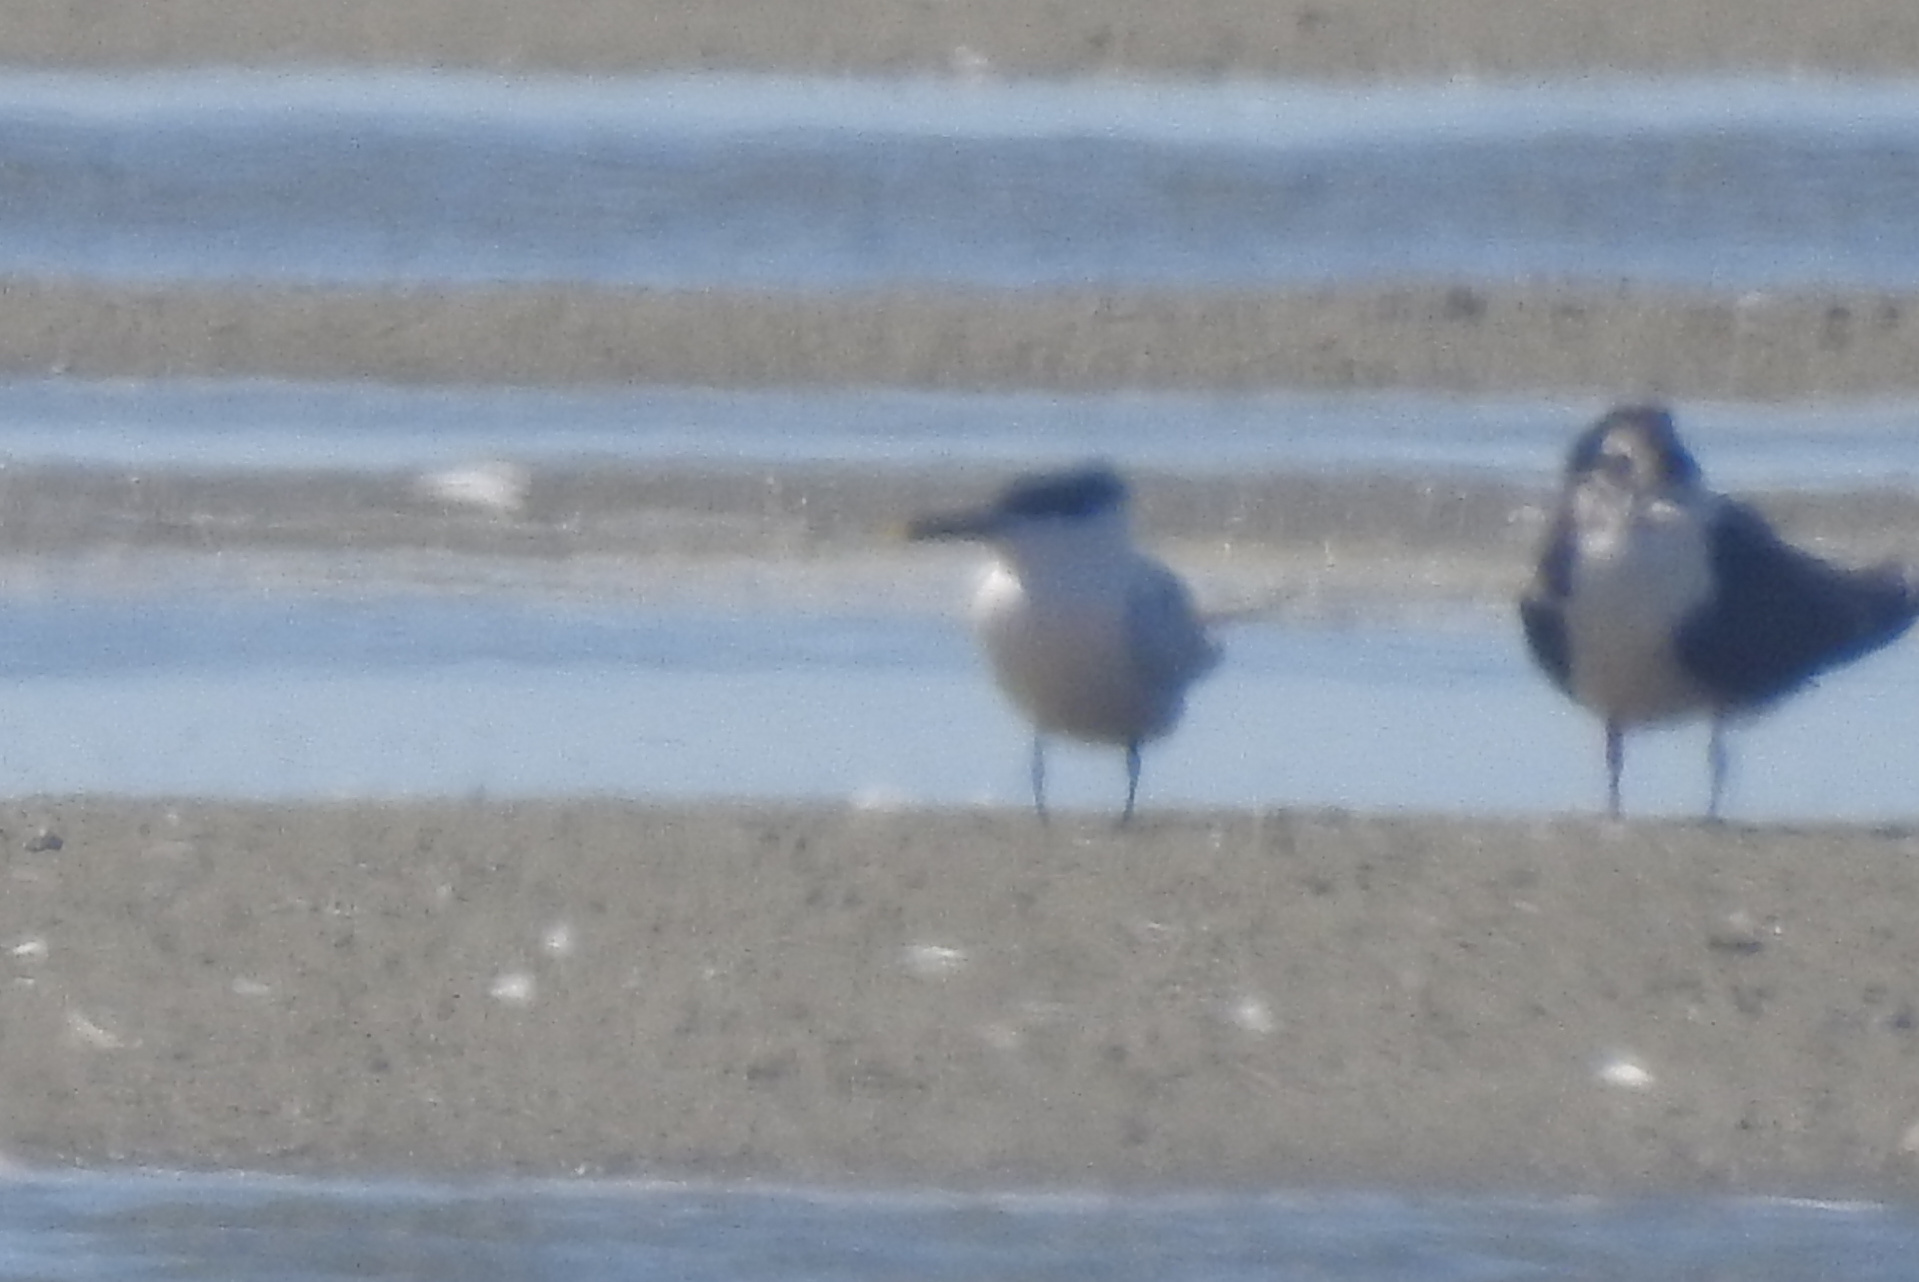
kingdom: Animalia
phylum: Chordata
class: Aves
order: Charadriiformes
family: Laridae
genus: Thalasseus
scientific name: Thalasseus sandvicensis
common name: Sandwich tern
